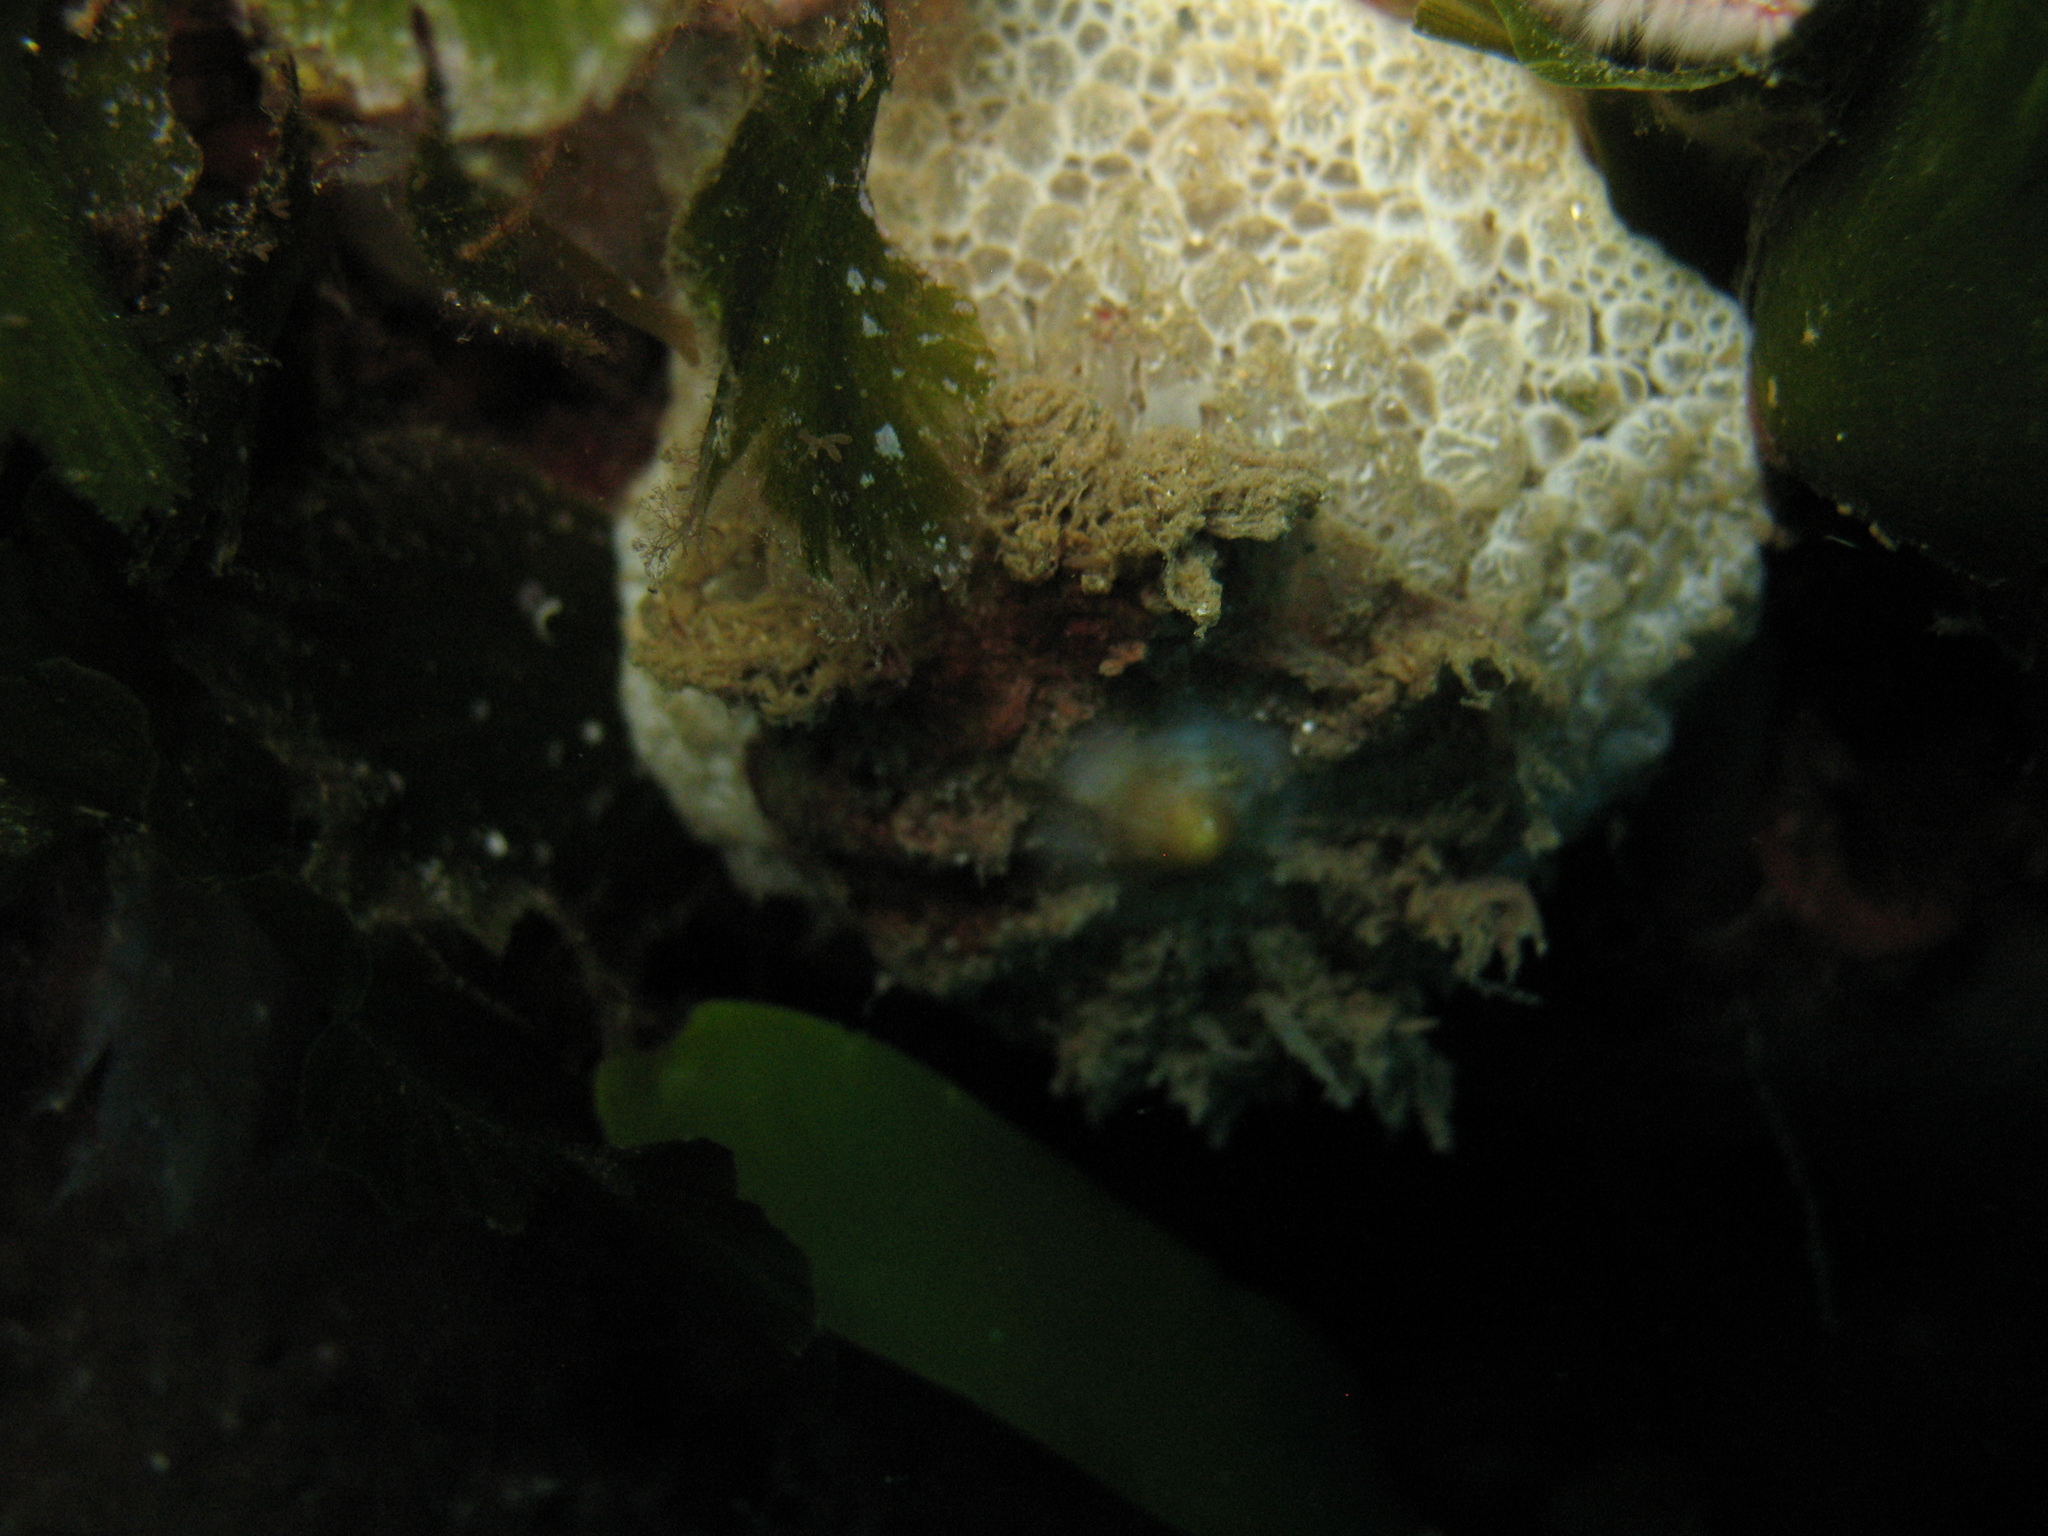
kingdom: Animalia
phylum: Mollusca
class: Gastropoda
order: Umbraculida
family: Umbraculidae
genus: Umbraculum
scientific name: Umbraculum umbraculum
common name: Atlantic umbrella slug
